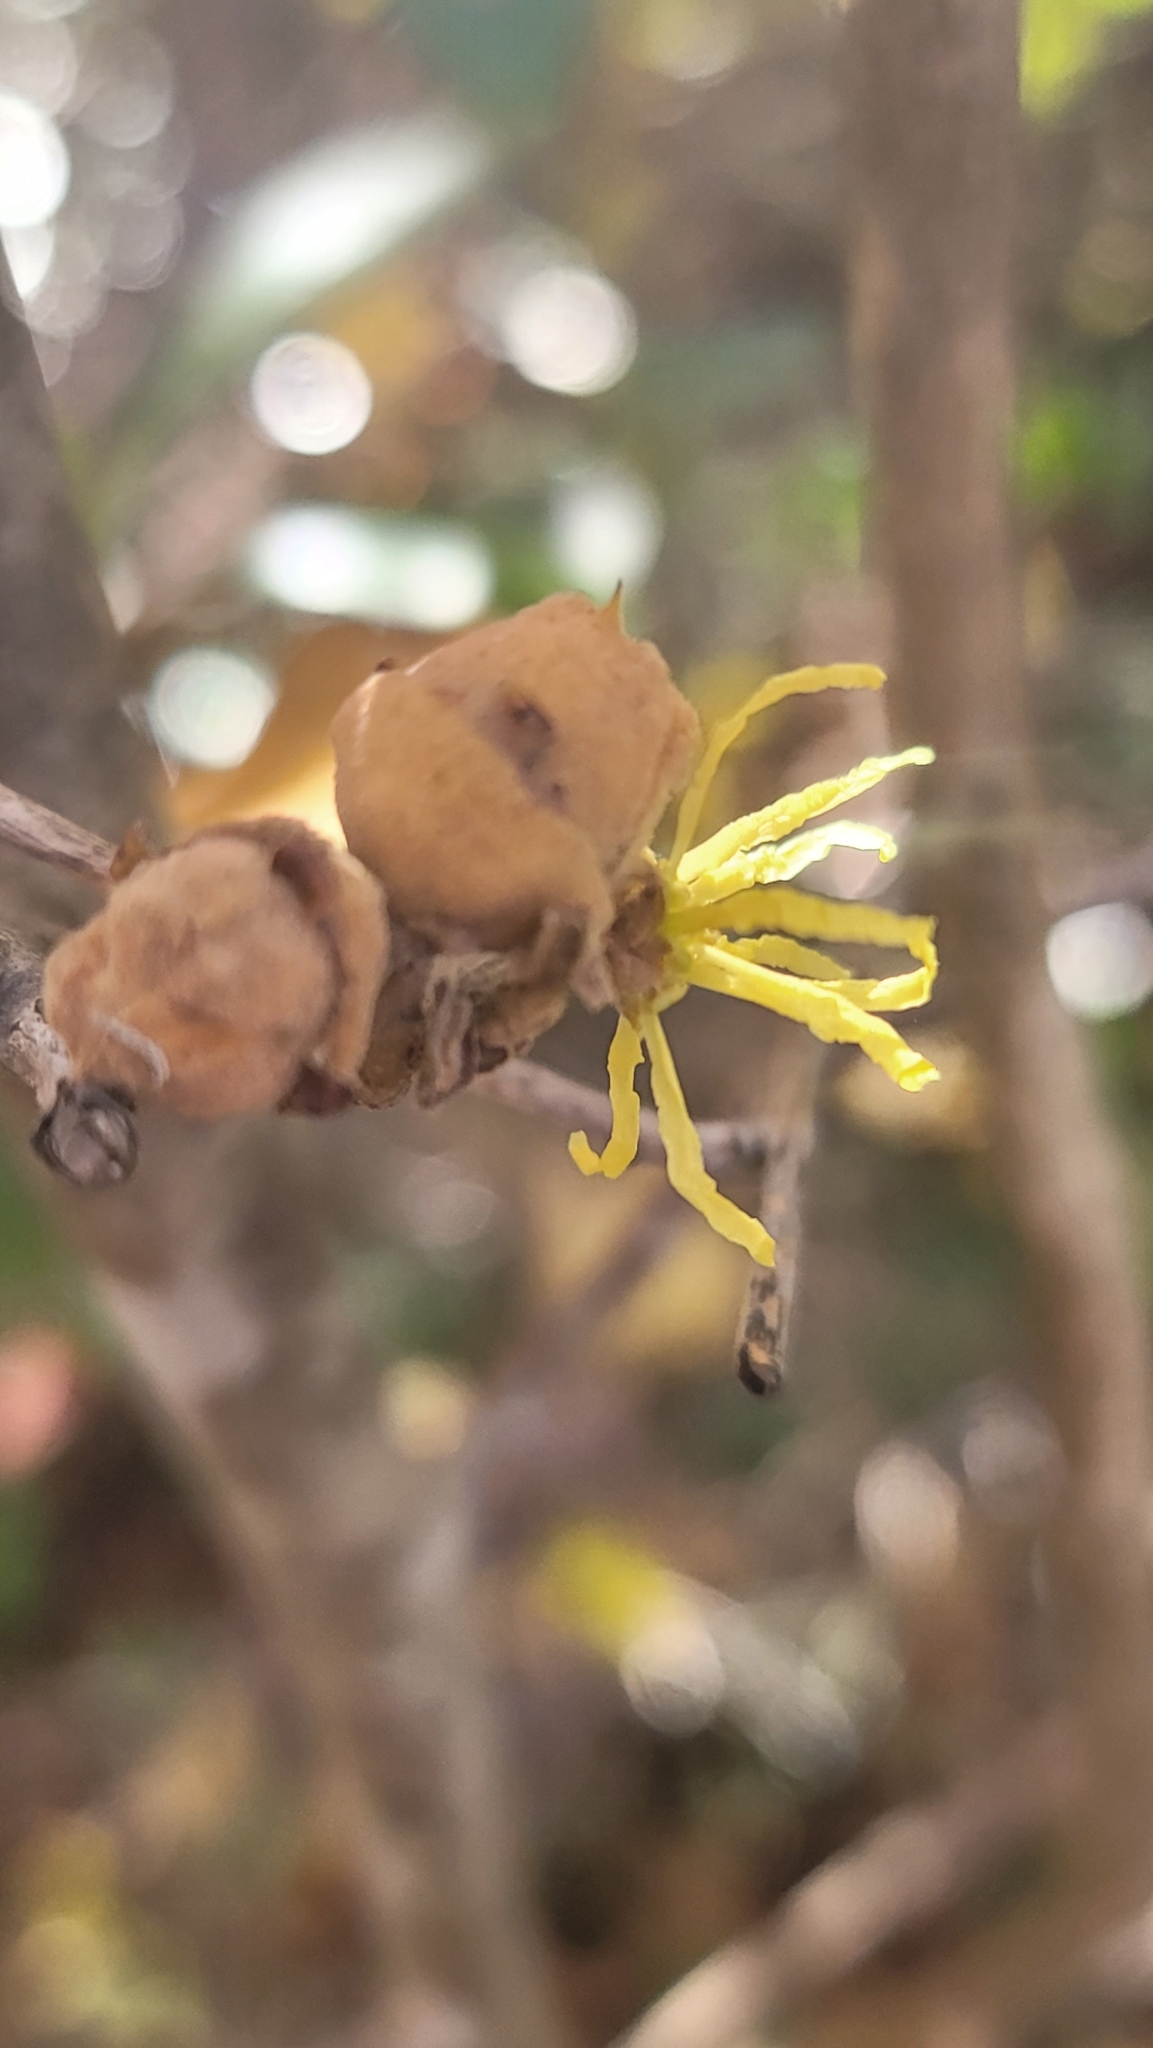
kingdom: Plantae
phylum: Tracheophyta
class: Magnoliopsida
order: Saxifragales
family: Hamamelidaceae
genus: Hamamelis
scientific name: Hamamelis virginiana
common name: Witch-hazel
